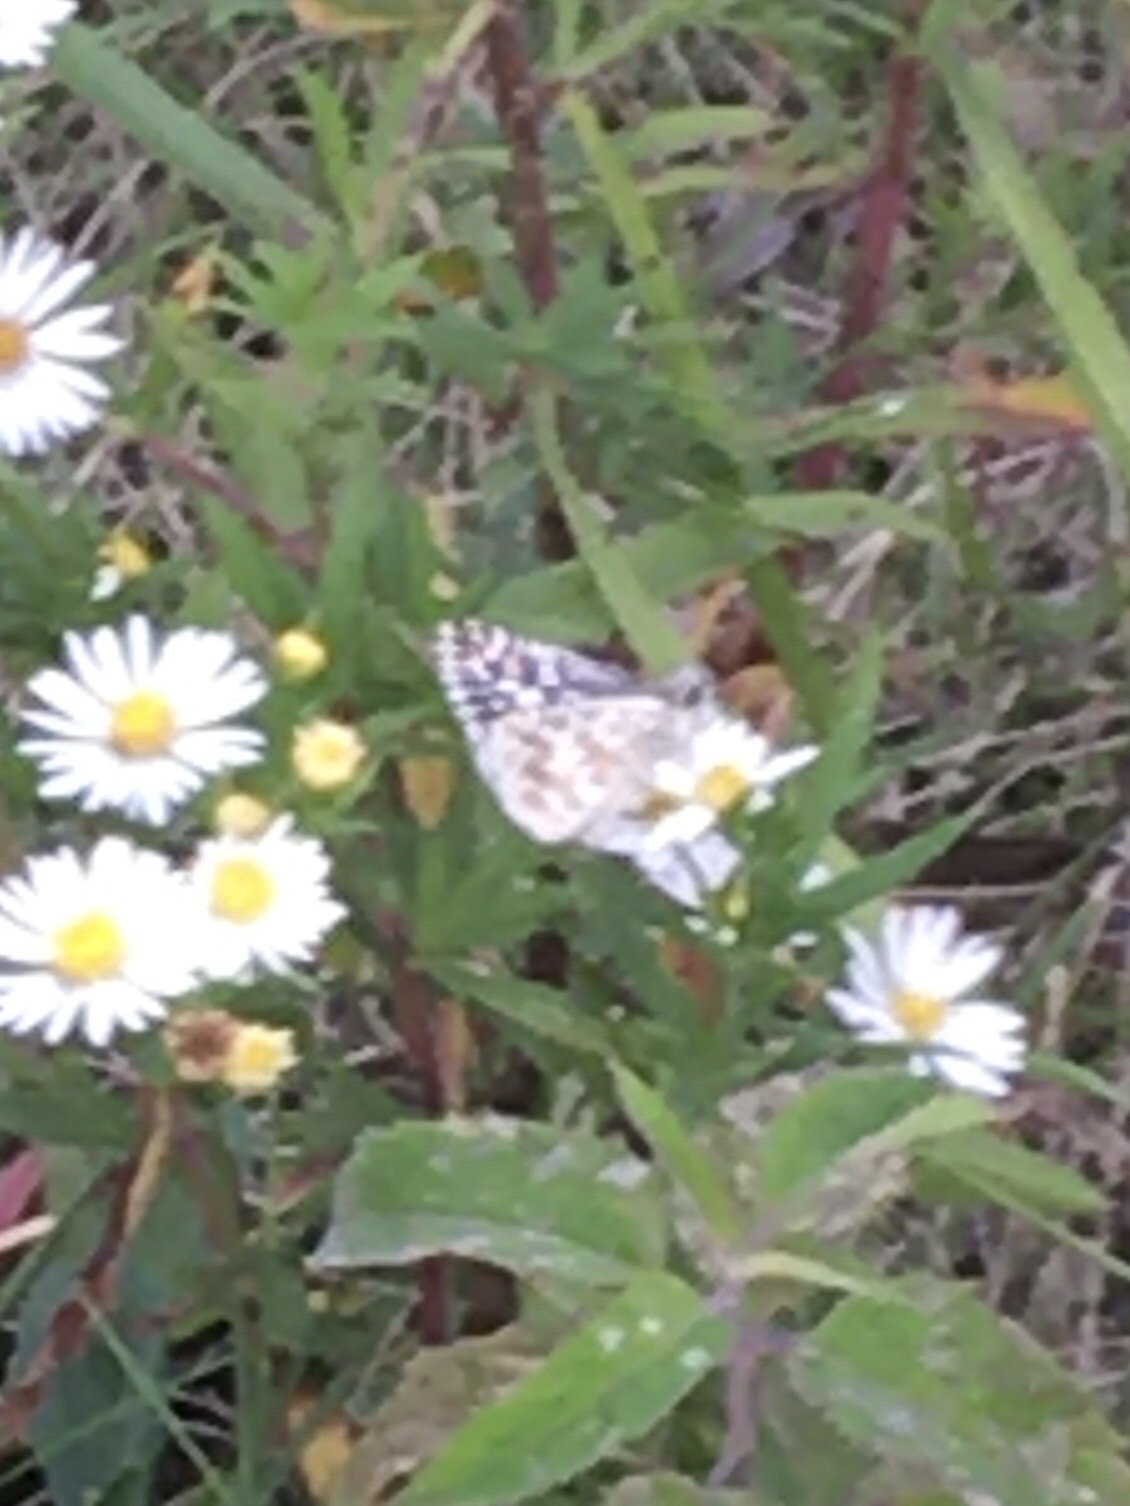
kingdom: Animalia
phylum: Arthropoda
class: Insecta
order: Lepidoptera
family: Hesperiidae
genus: Burnsius
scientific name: Burnsius communis
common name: Common checkered-skipper
